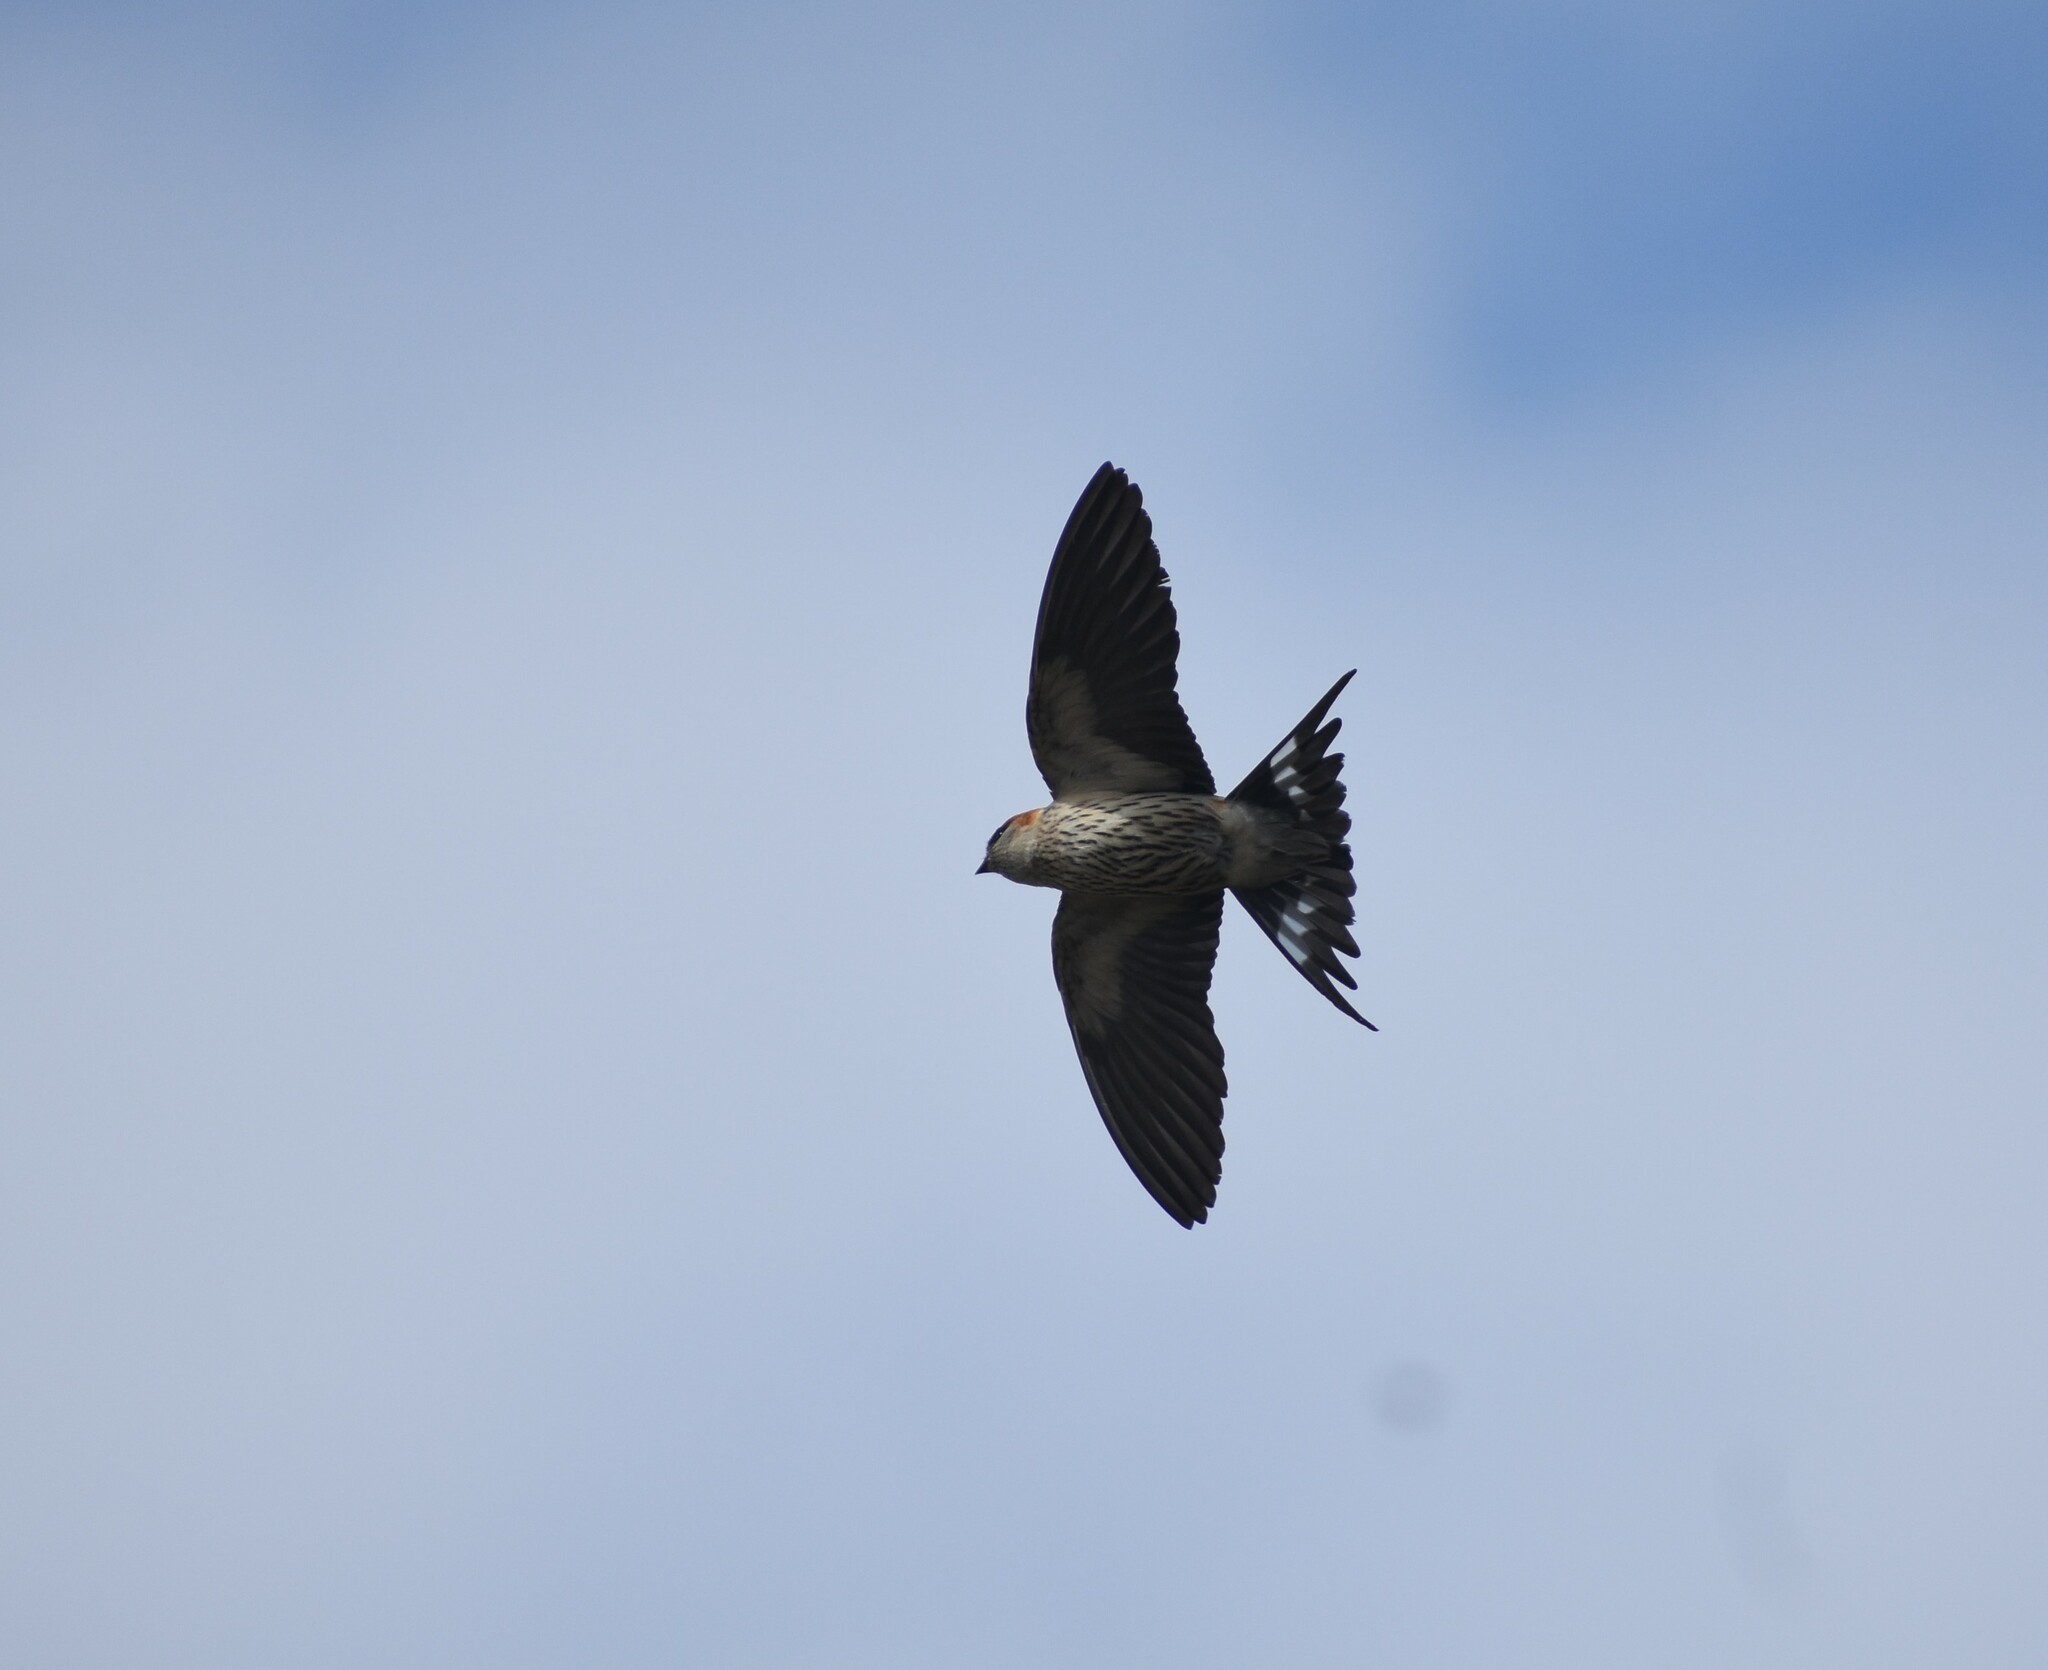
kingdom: Animalia
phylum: Chordata
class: Aves
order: Passeriformes
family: Hirundinidae
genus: Cecropis
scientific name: Cecropis cucullata
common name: Greater striped-swallow
